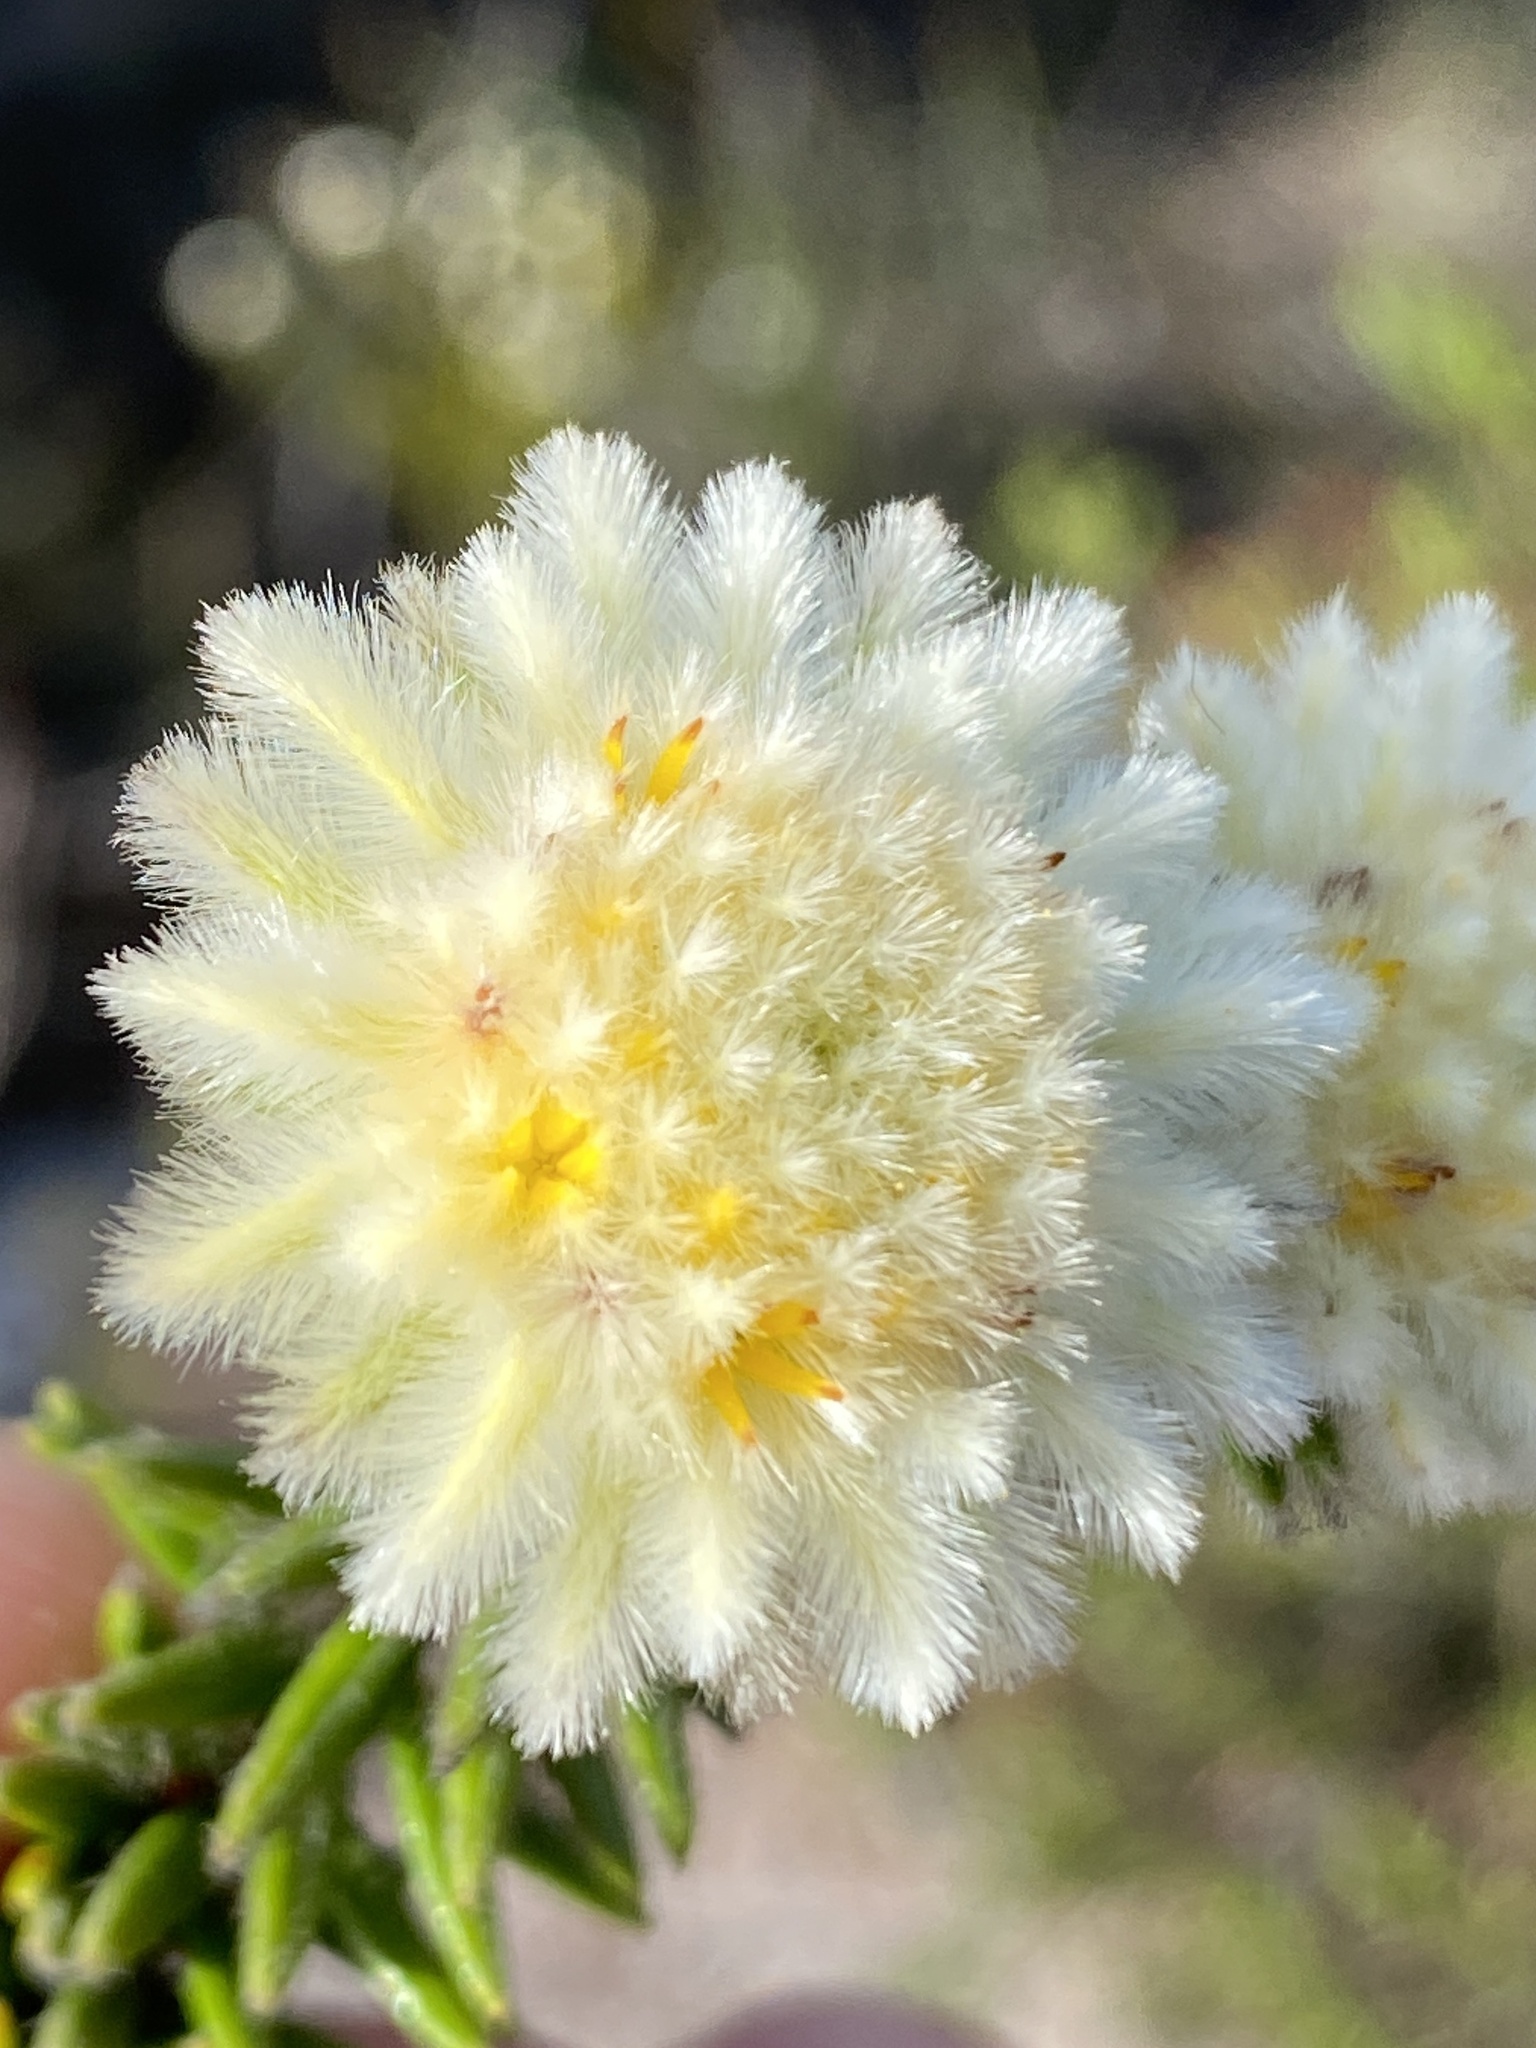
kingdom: Plantae
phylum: Tracheophyta
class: Magnoliopsida
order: Rosales
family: Rhamnaceae
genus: Phylica
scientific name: Phylica amoena
